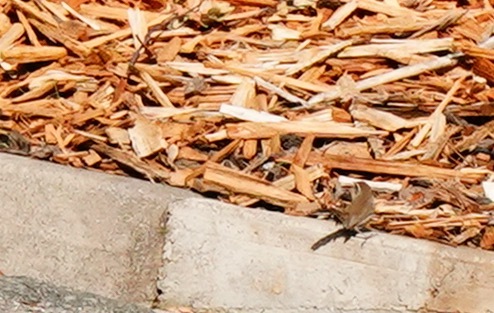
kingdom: Animalia
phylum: Chordata
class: Aves
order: Passeriformes
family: Troglodytidae
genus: Thryomanes
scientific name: Thryomanes bewickii
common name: Bewick's wren
